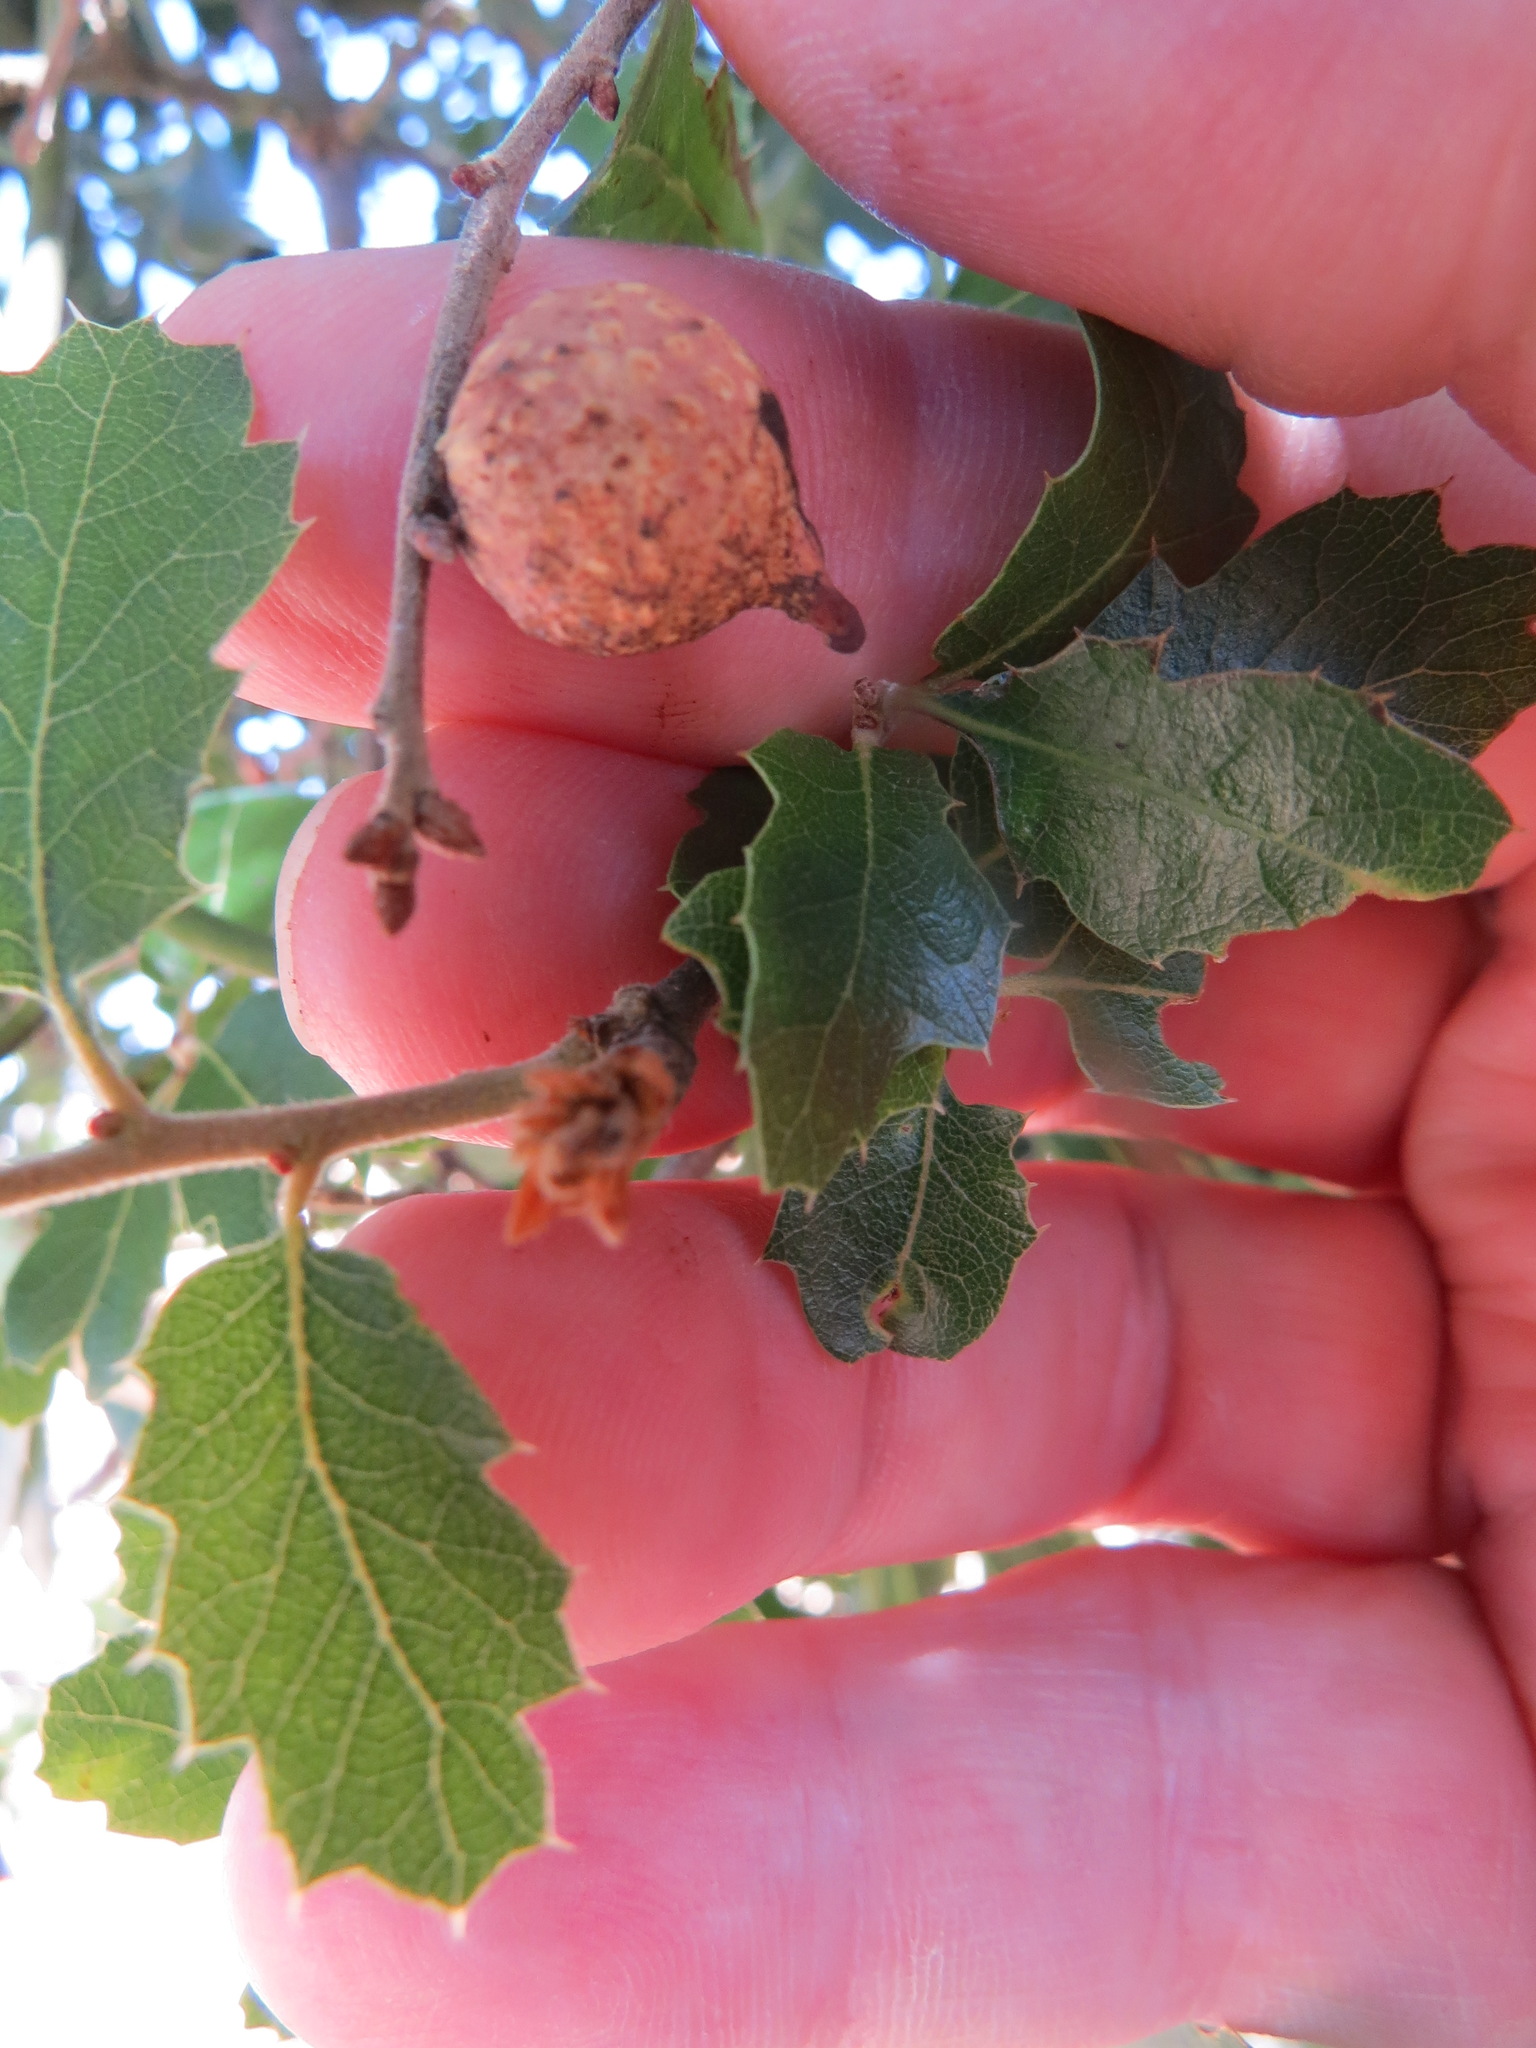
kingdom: Animalia
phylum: Arthropoda
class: Insecta
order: Hymenoptera
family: Cynipidae
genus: Burnettweldia
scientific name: Burnettweldia
